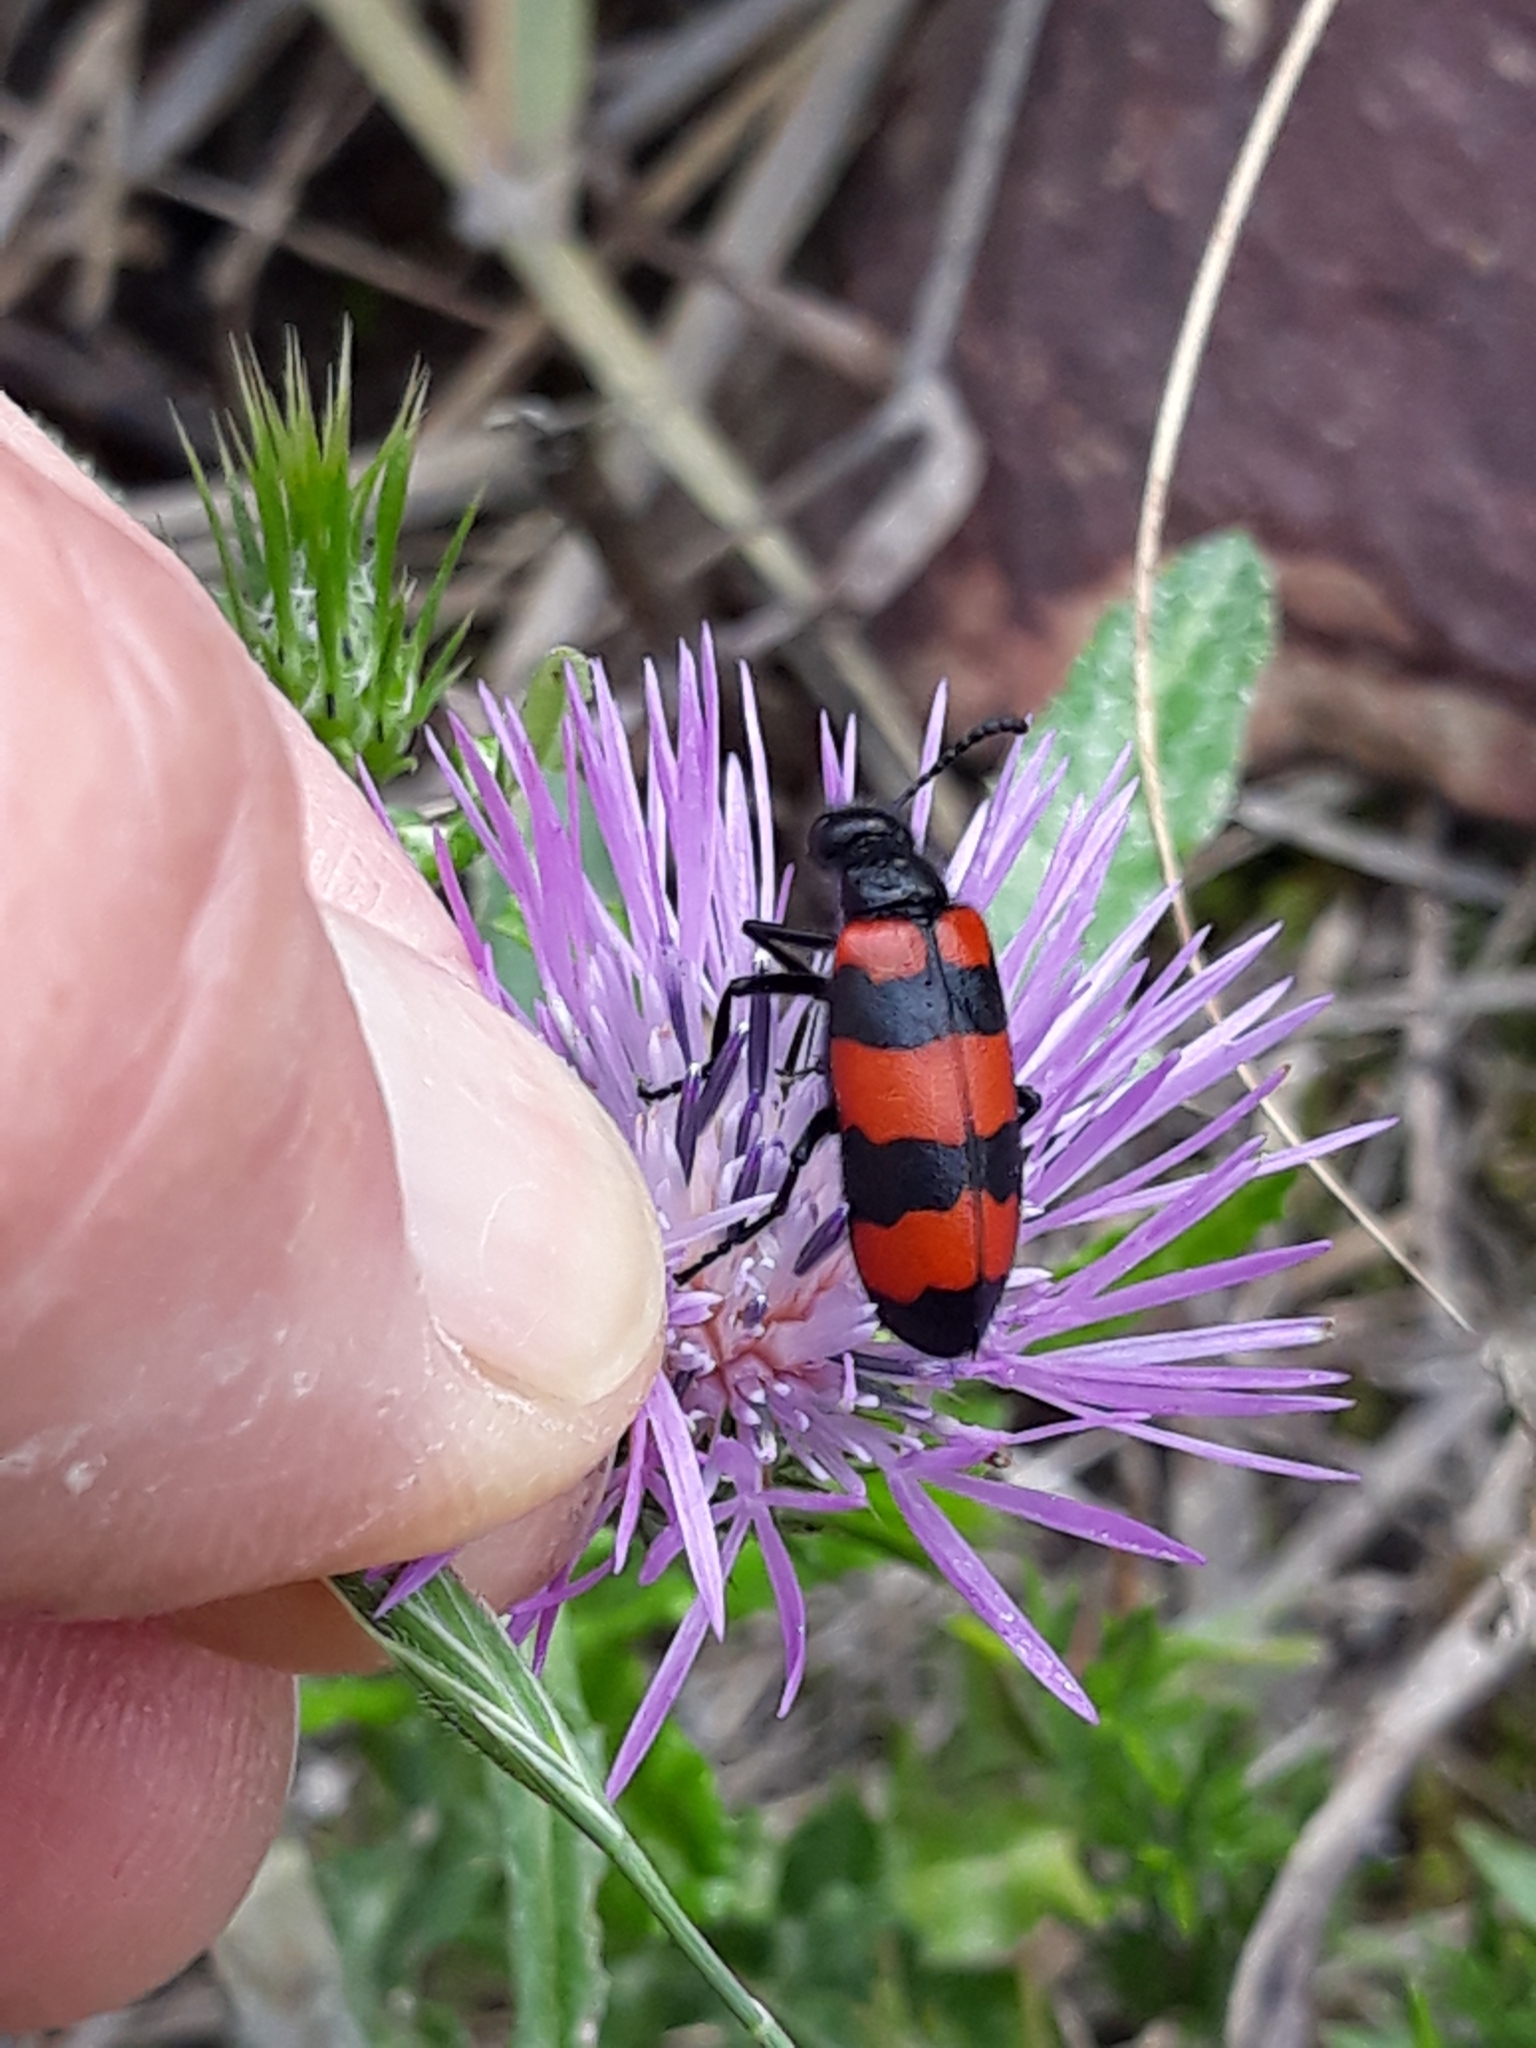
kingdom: Animalia
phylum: Arthropoda
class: Insecta
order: Coleoptera
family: Meloidae
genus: Mylabris
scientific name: Mylabris tricincta
